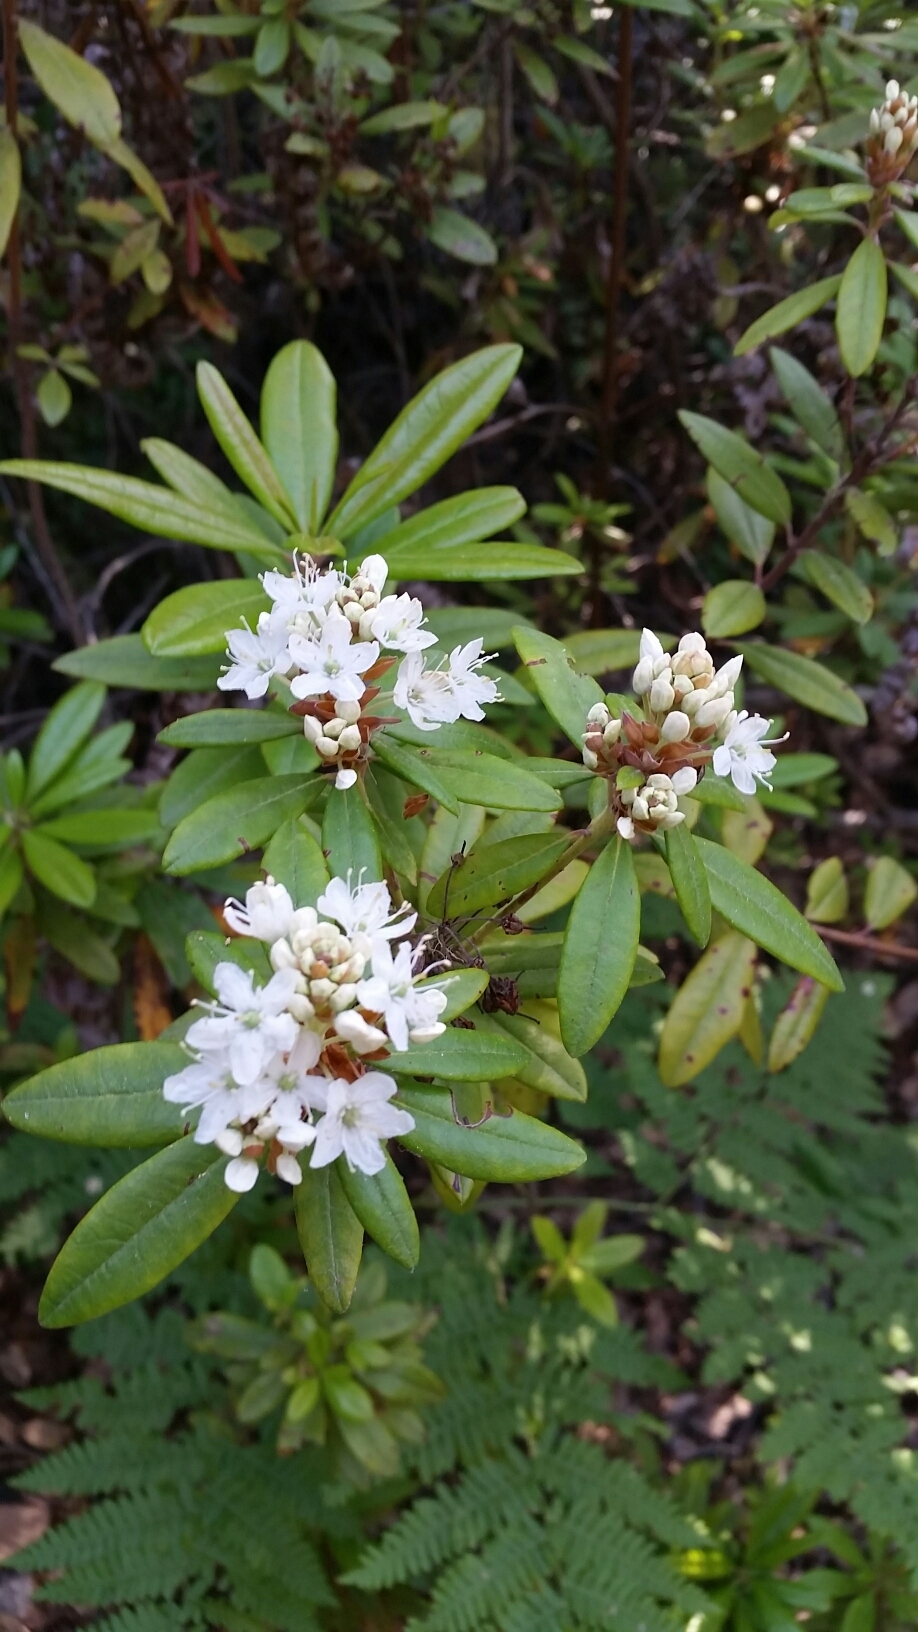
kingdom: Plantae
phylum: Tracheophyta
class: Magnoliopsida
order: Ericales
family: Ericaceae
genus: Rhododendron
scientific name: Rhododendron columbianum
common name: Western labrador tea
